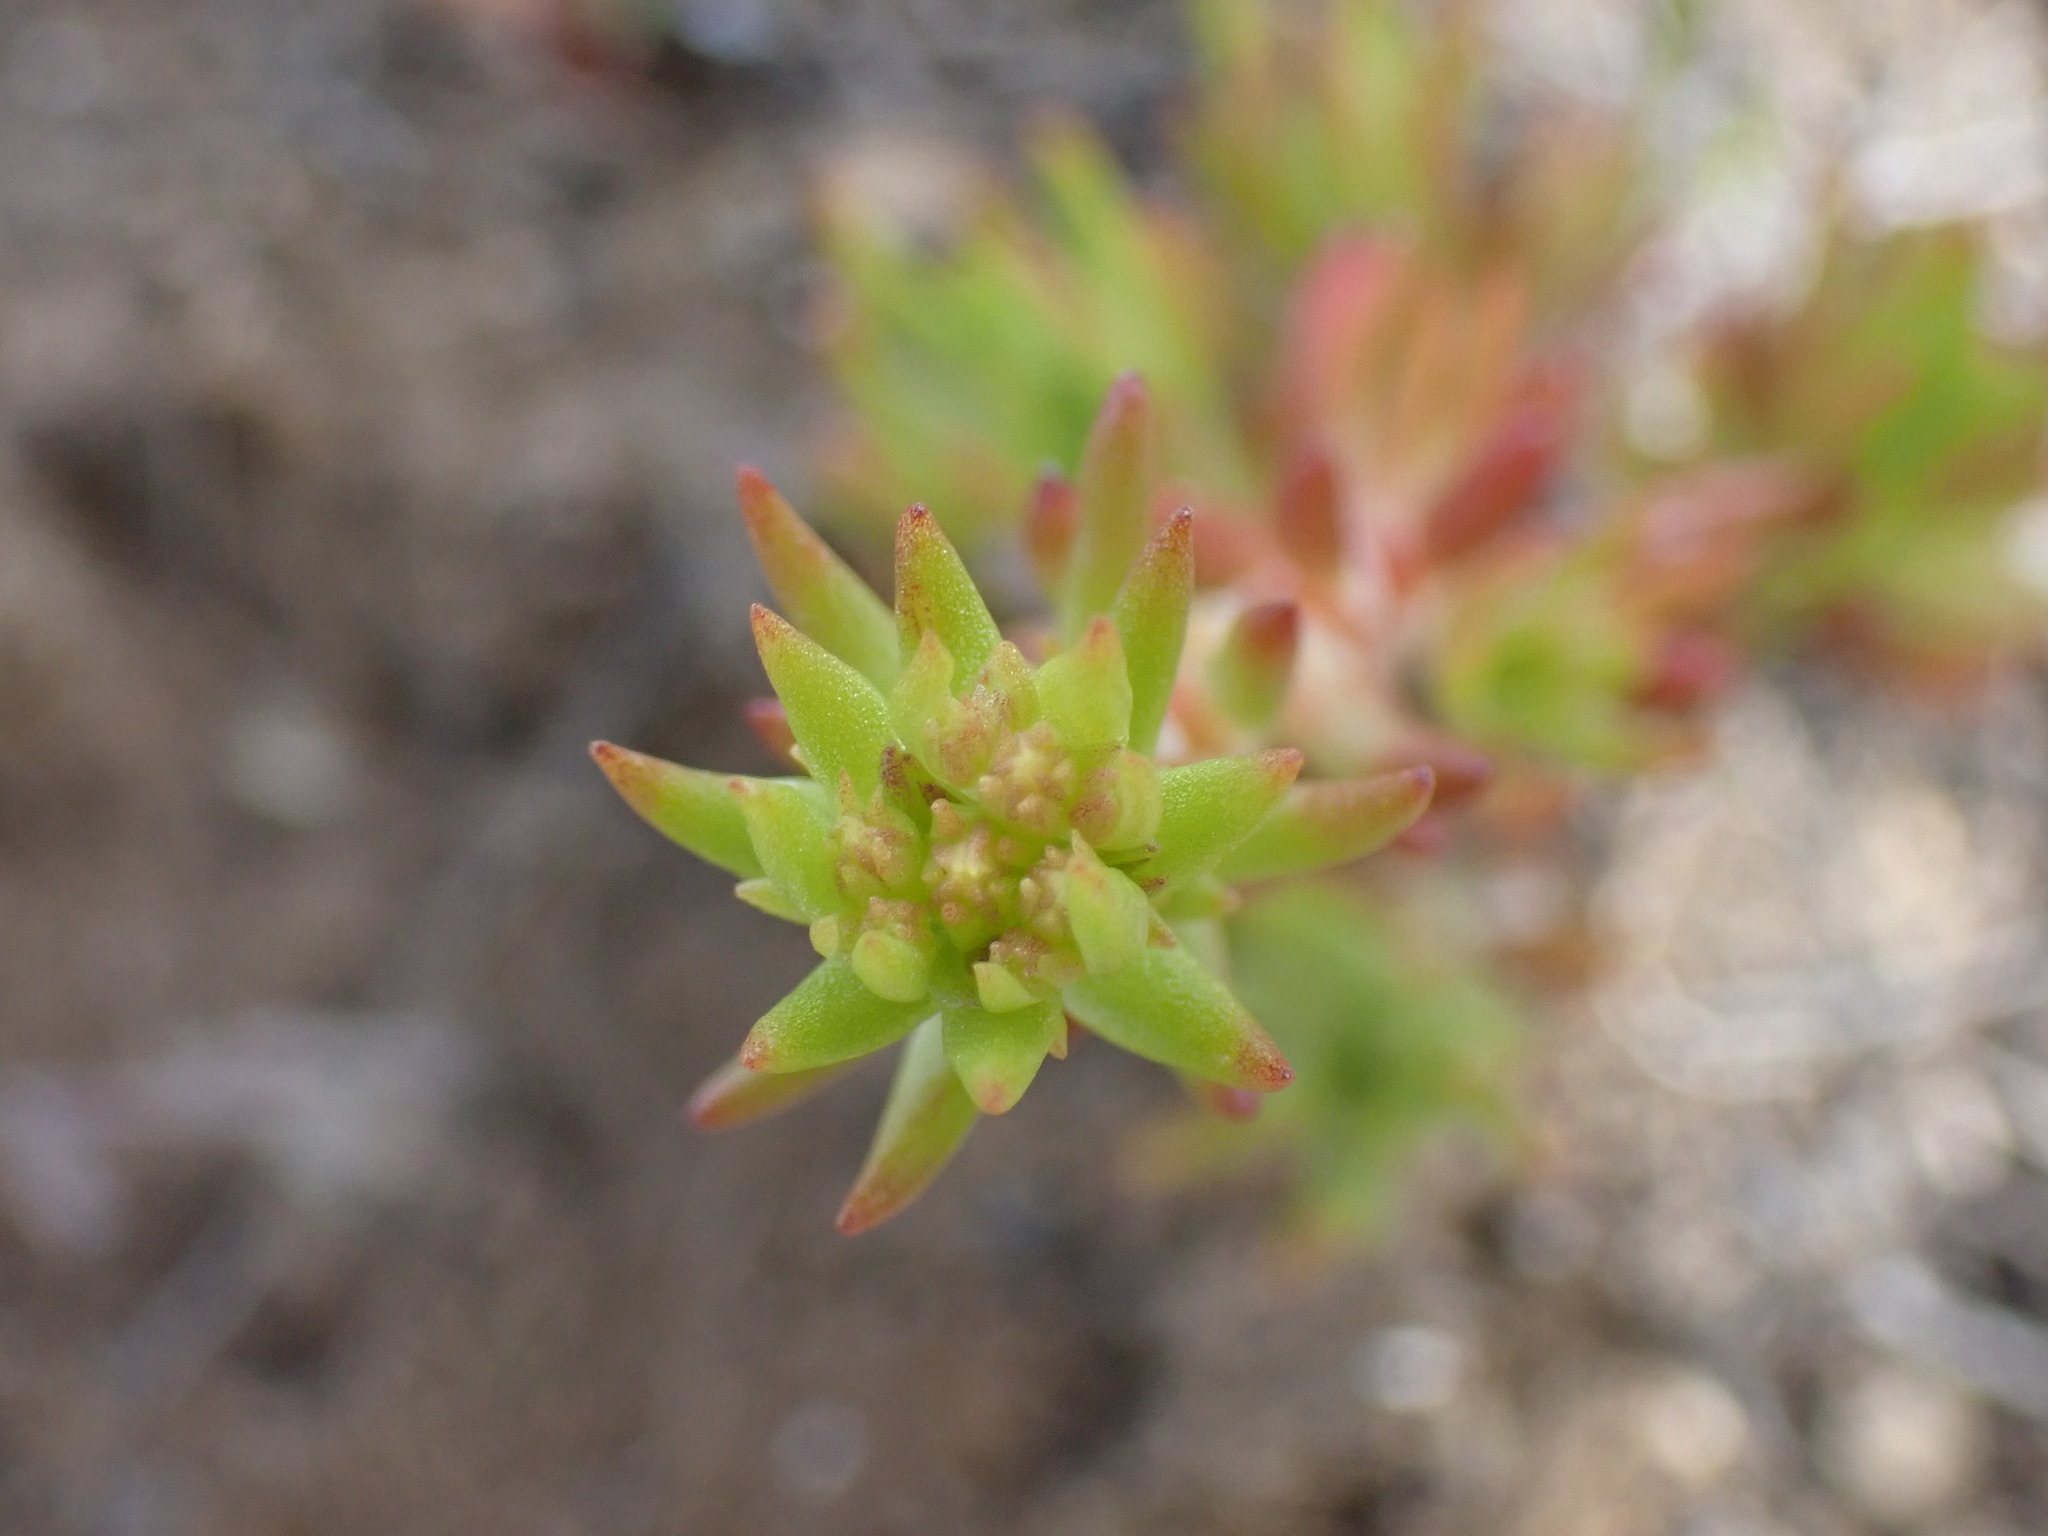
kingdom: Plantae
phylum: Tracheophyta
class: Magnoliopsida
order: Saxifragales
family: Crassulaceae
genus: Sedum
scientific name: Sedum stenopetalum
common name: Narrow-petaled stonecrop
